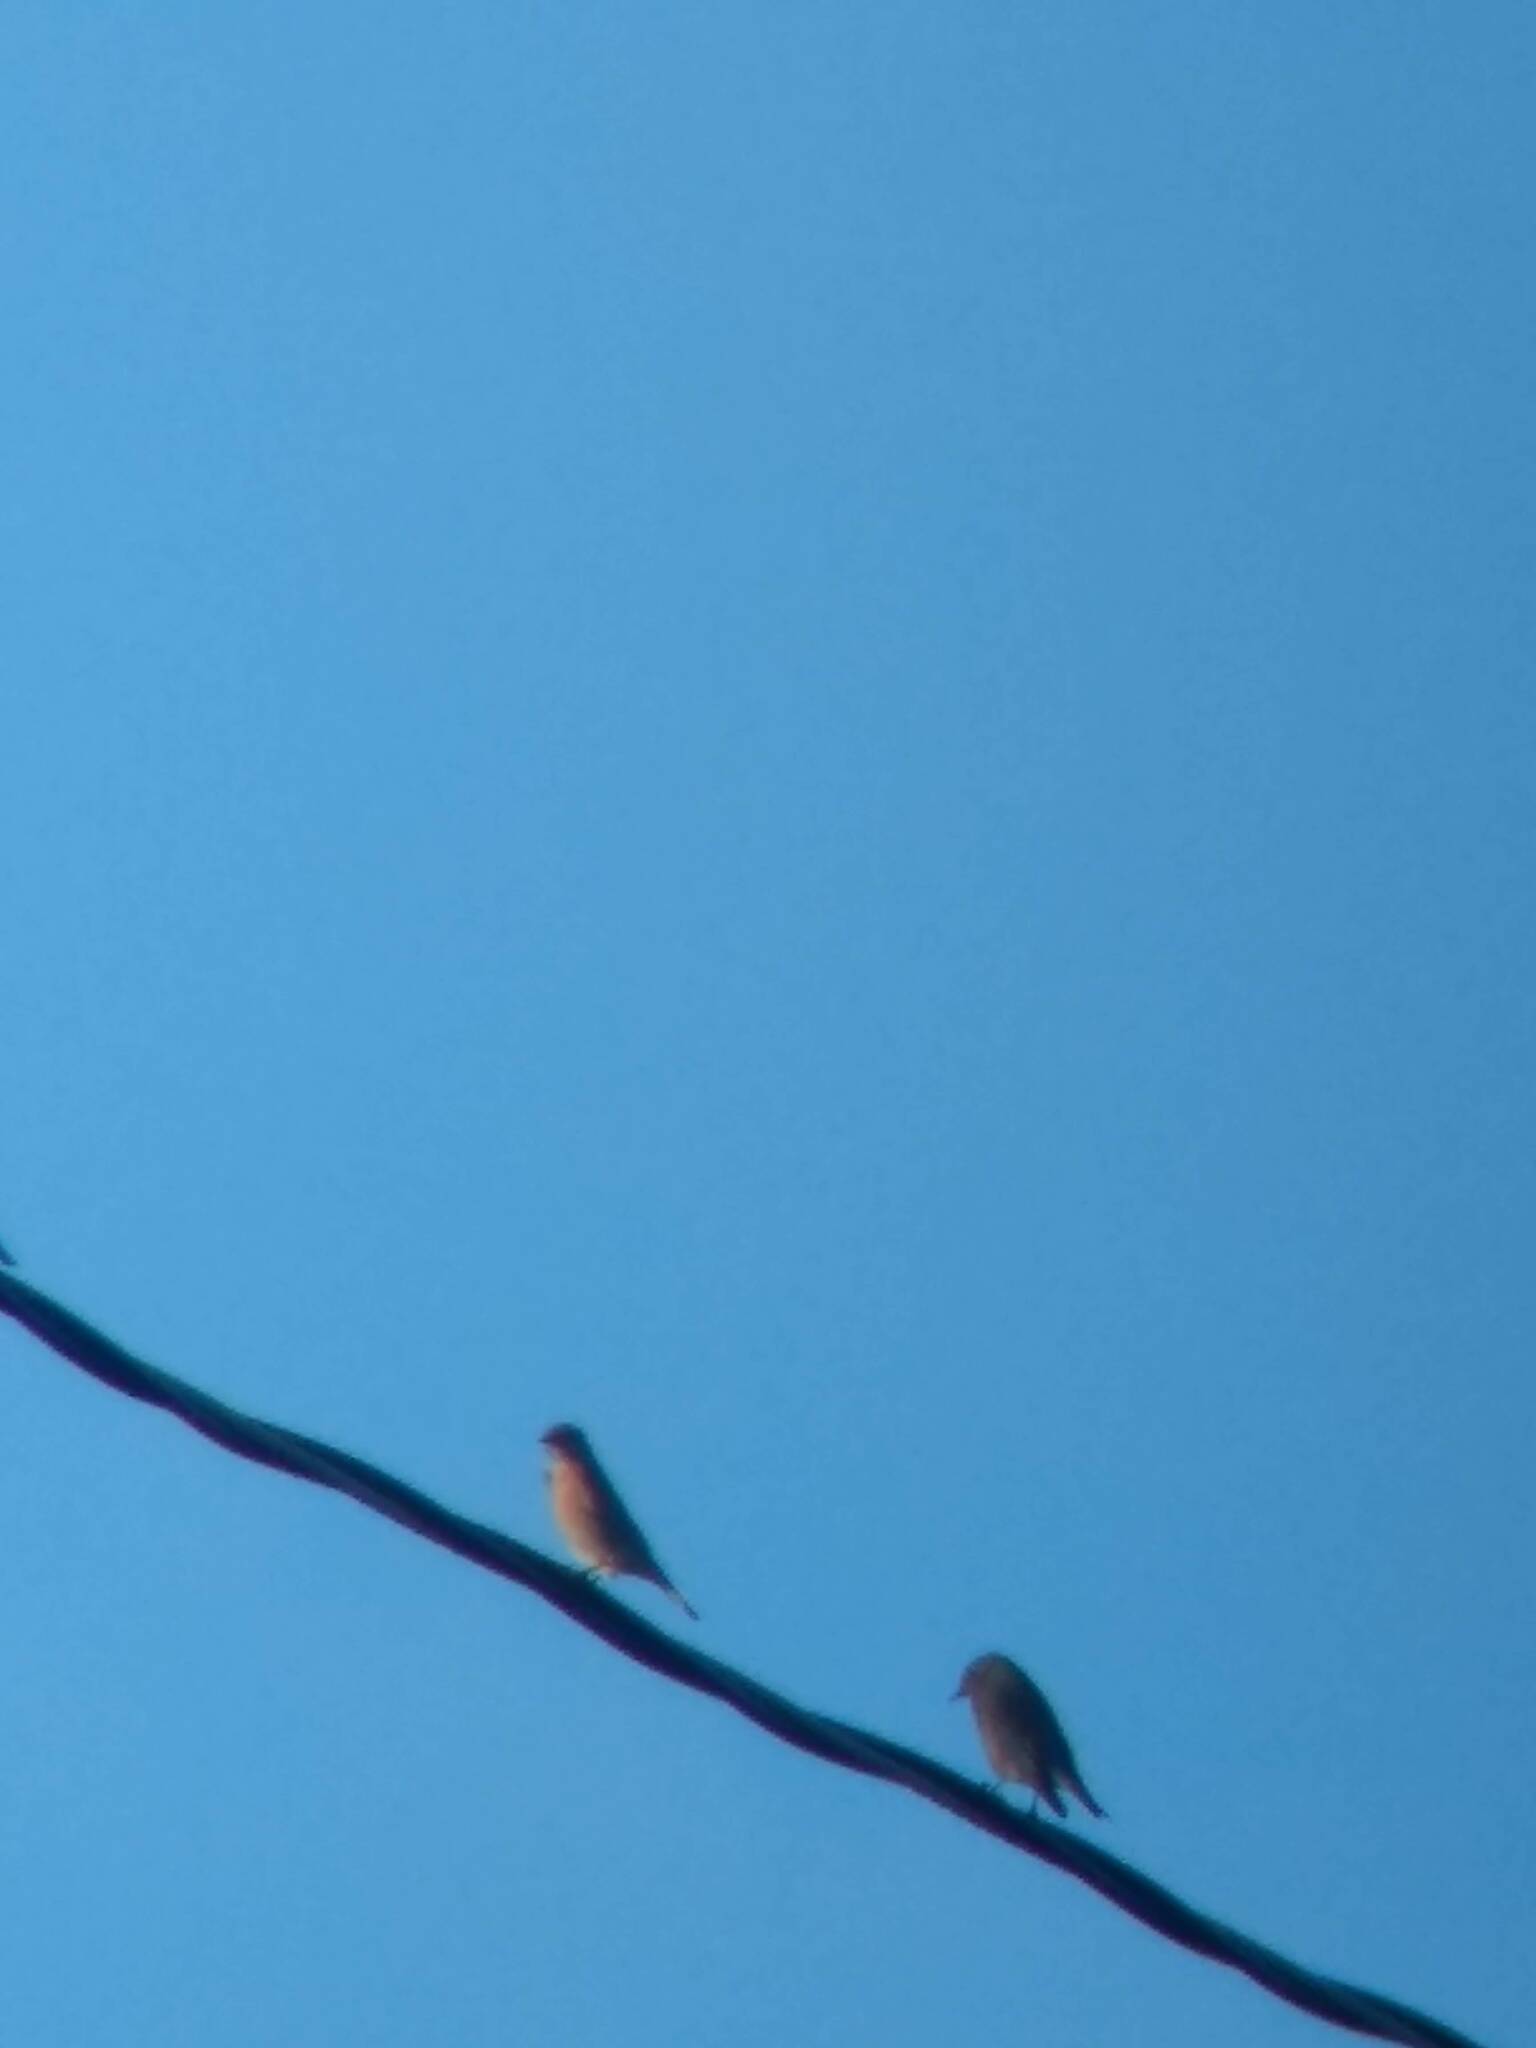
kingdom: Animalia
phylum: Chordata
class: Aves
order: Passeriformes
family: Turdidae
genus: Sialia
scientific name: Sialia mexicana
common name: Western bluebird
